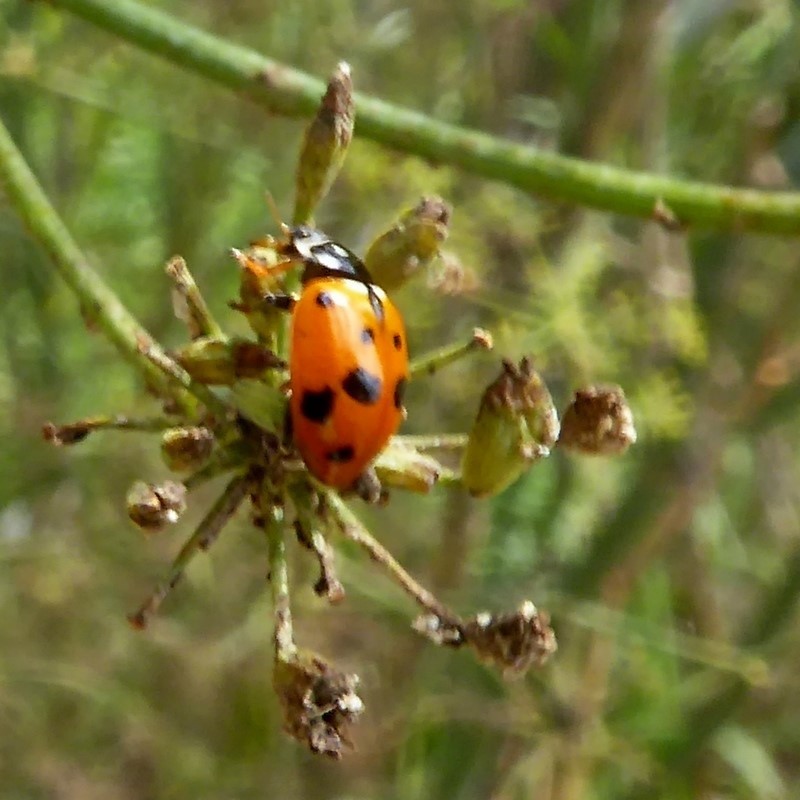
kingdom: Animalia
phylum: Arthropoda
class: Insecta
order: Coleoptera
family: Coccinellidae
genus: Hippodamia
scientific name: Hippodamia variegata
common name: Ladybird beetle
